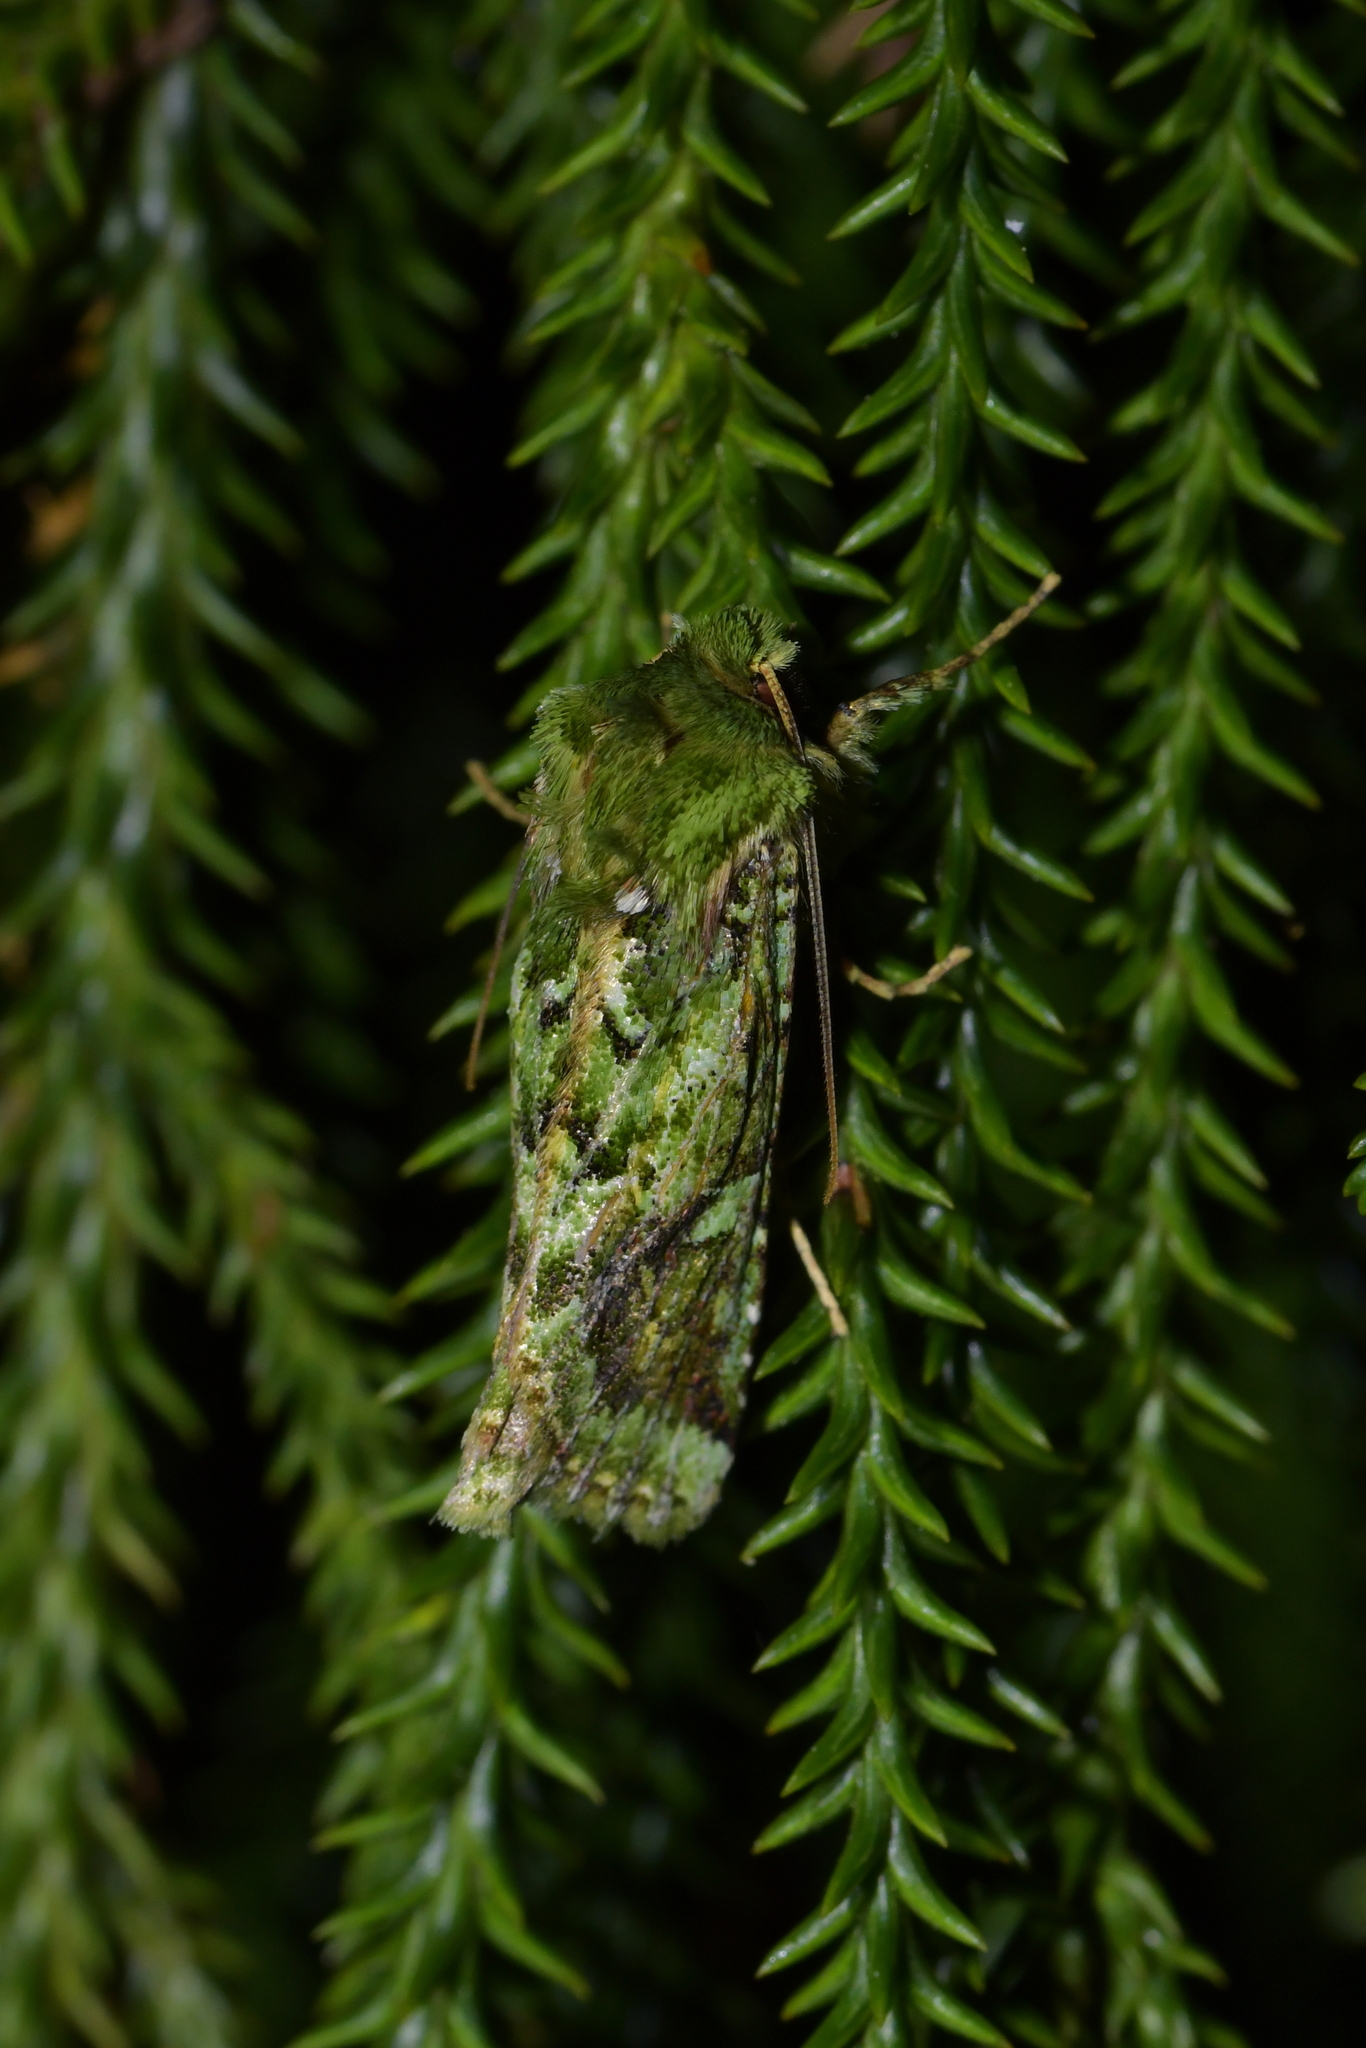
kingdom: Animalia
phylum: Arthropoda
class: Insecta
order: Lepidoptera
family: Noctuidae
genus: Feredayia
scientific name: Feredayia grammosa
